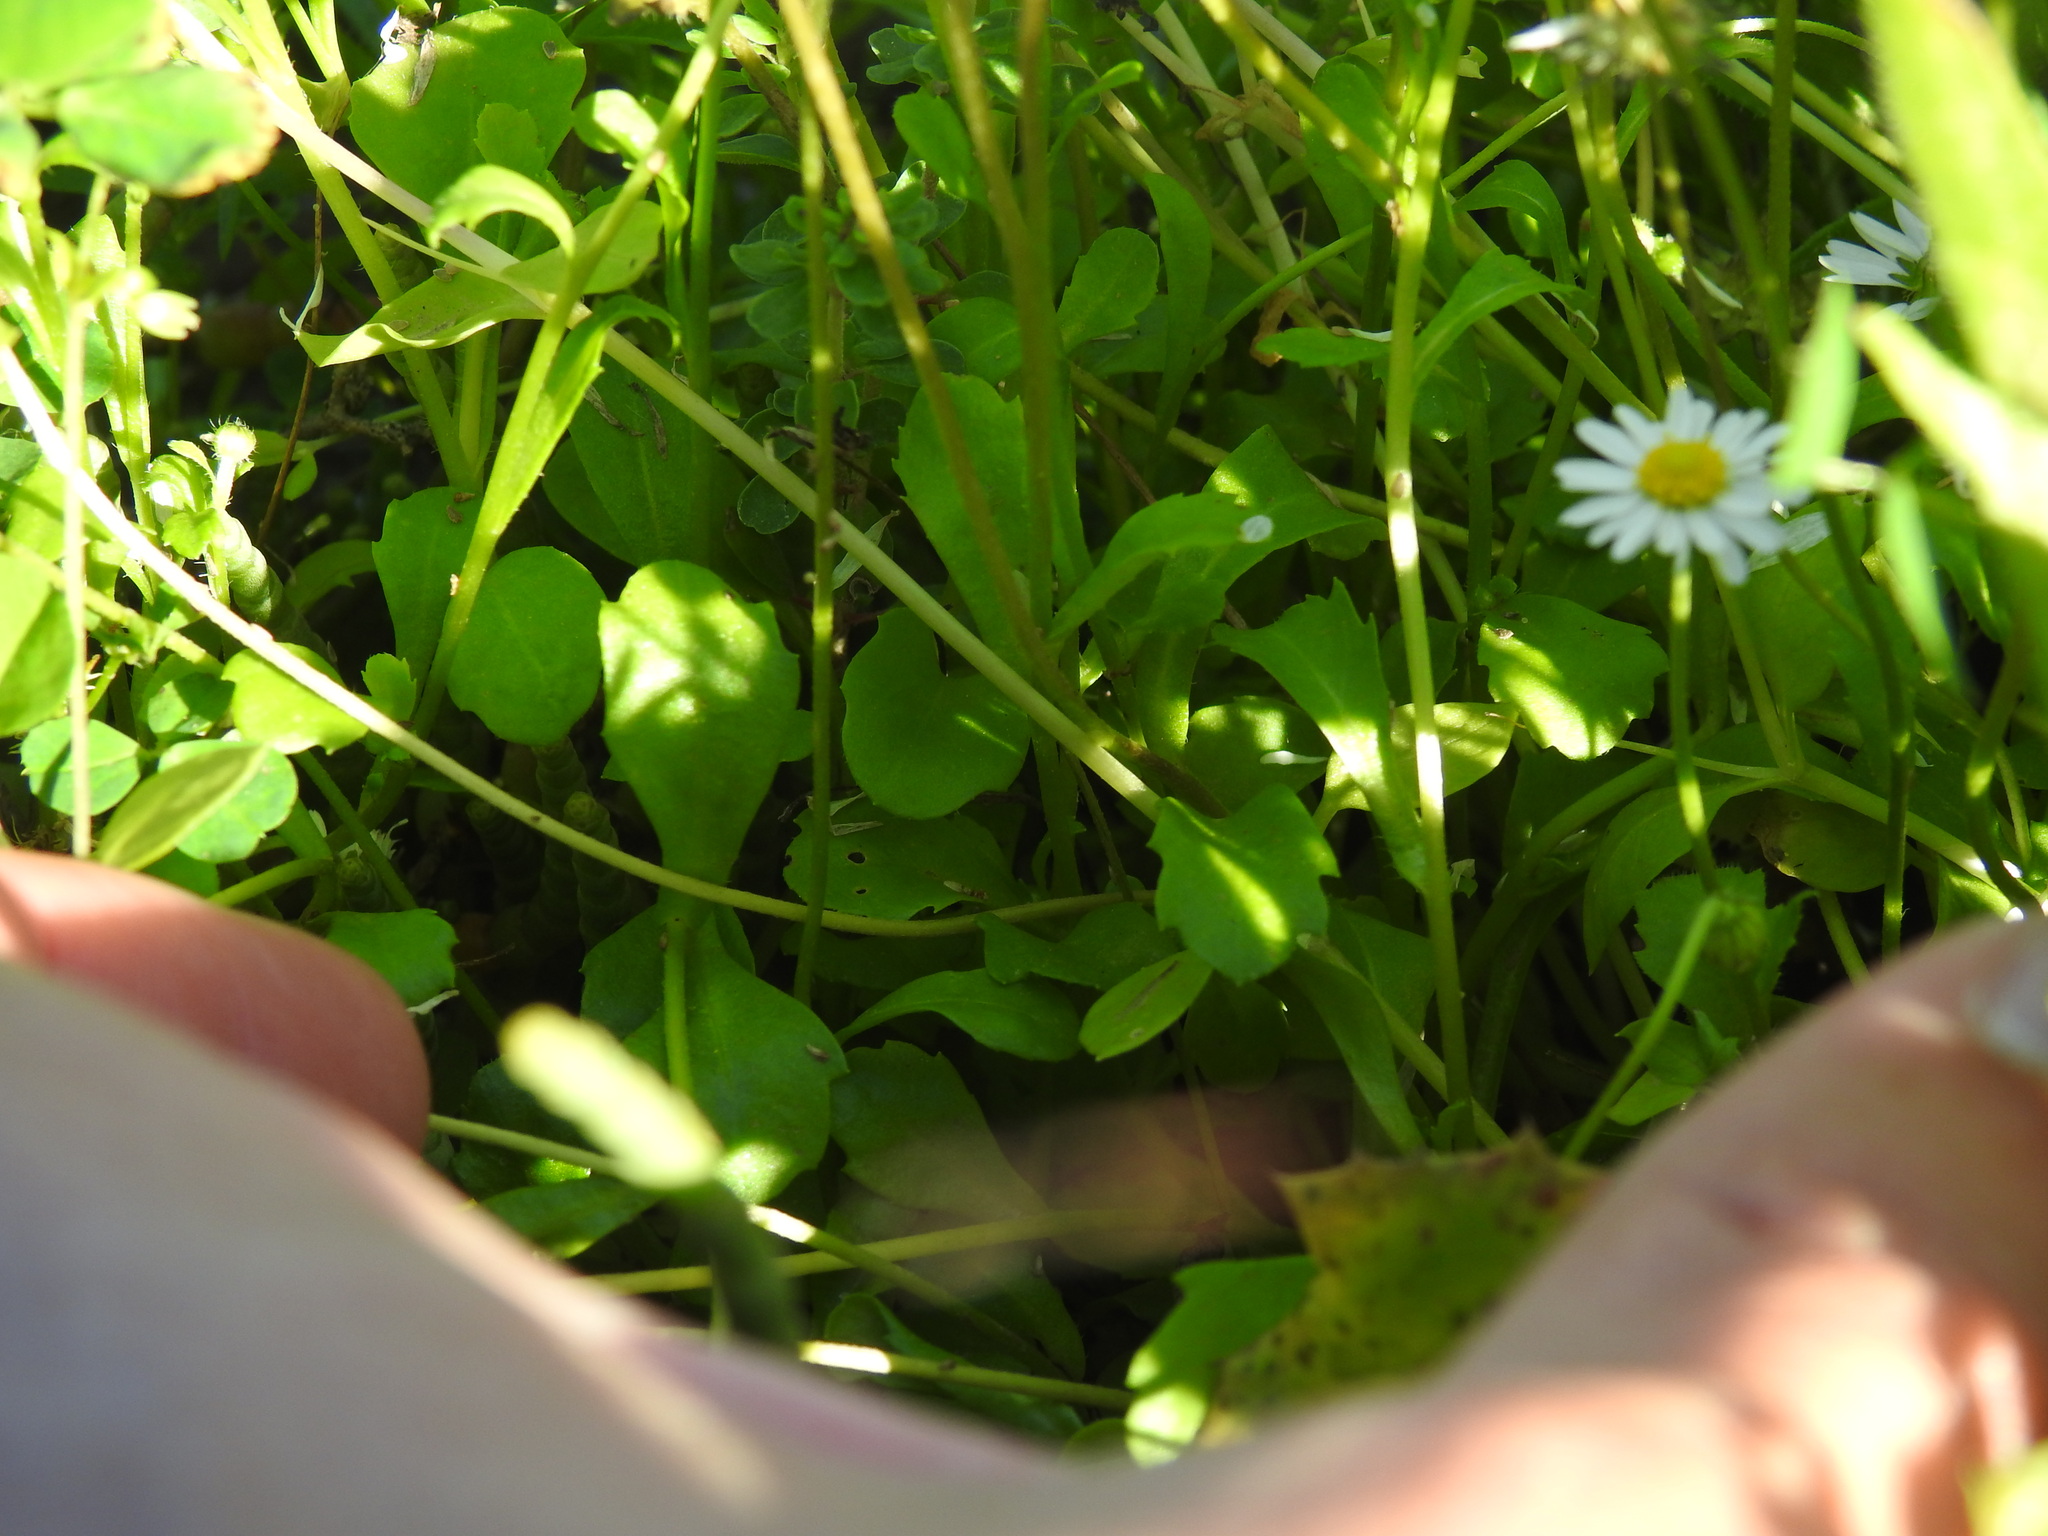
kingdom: Plantae
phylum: Tracheophyta
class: Magnoliopsida
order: Asterales
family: Asteraceae
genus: Bellis
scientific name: Bellis annua
